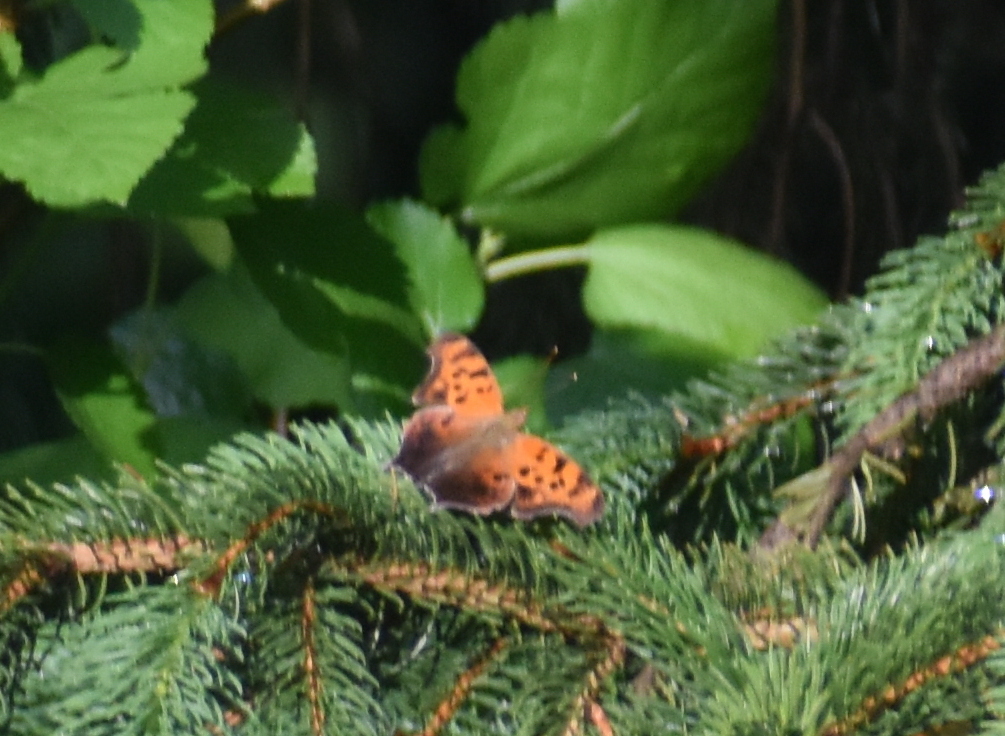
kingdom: Animalia
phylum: Arthropoda
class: Insecta
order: Lepidoptera
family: Nymphalidae
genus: Polygonia
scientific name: Polygonia interrogationis
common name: Question mark
